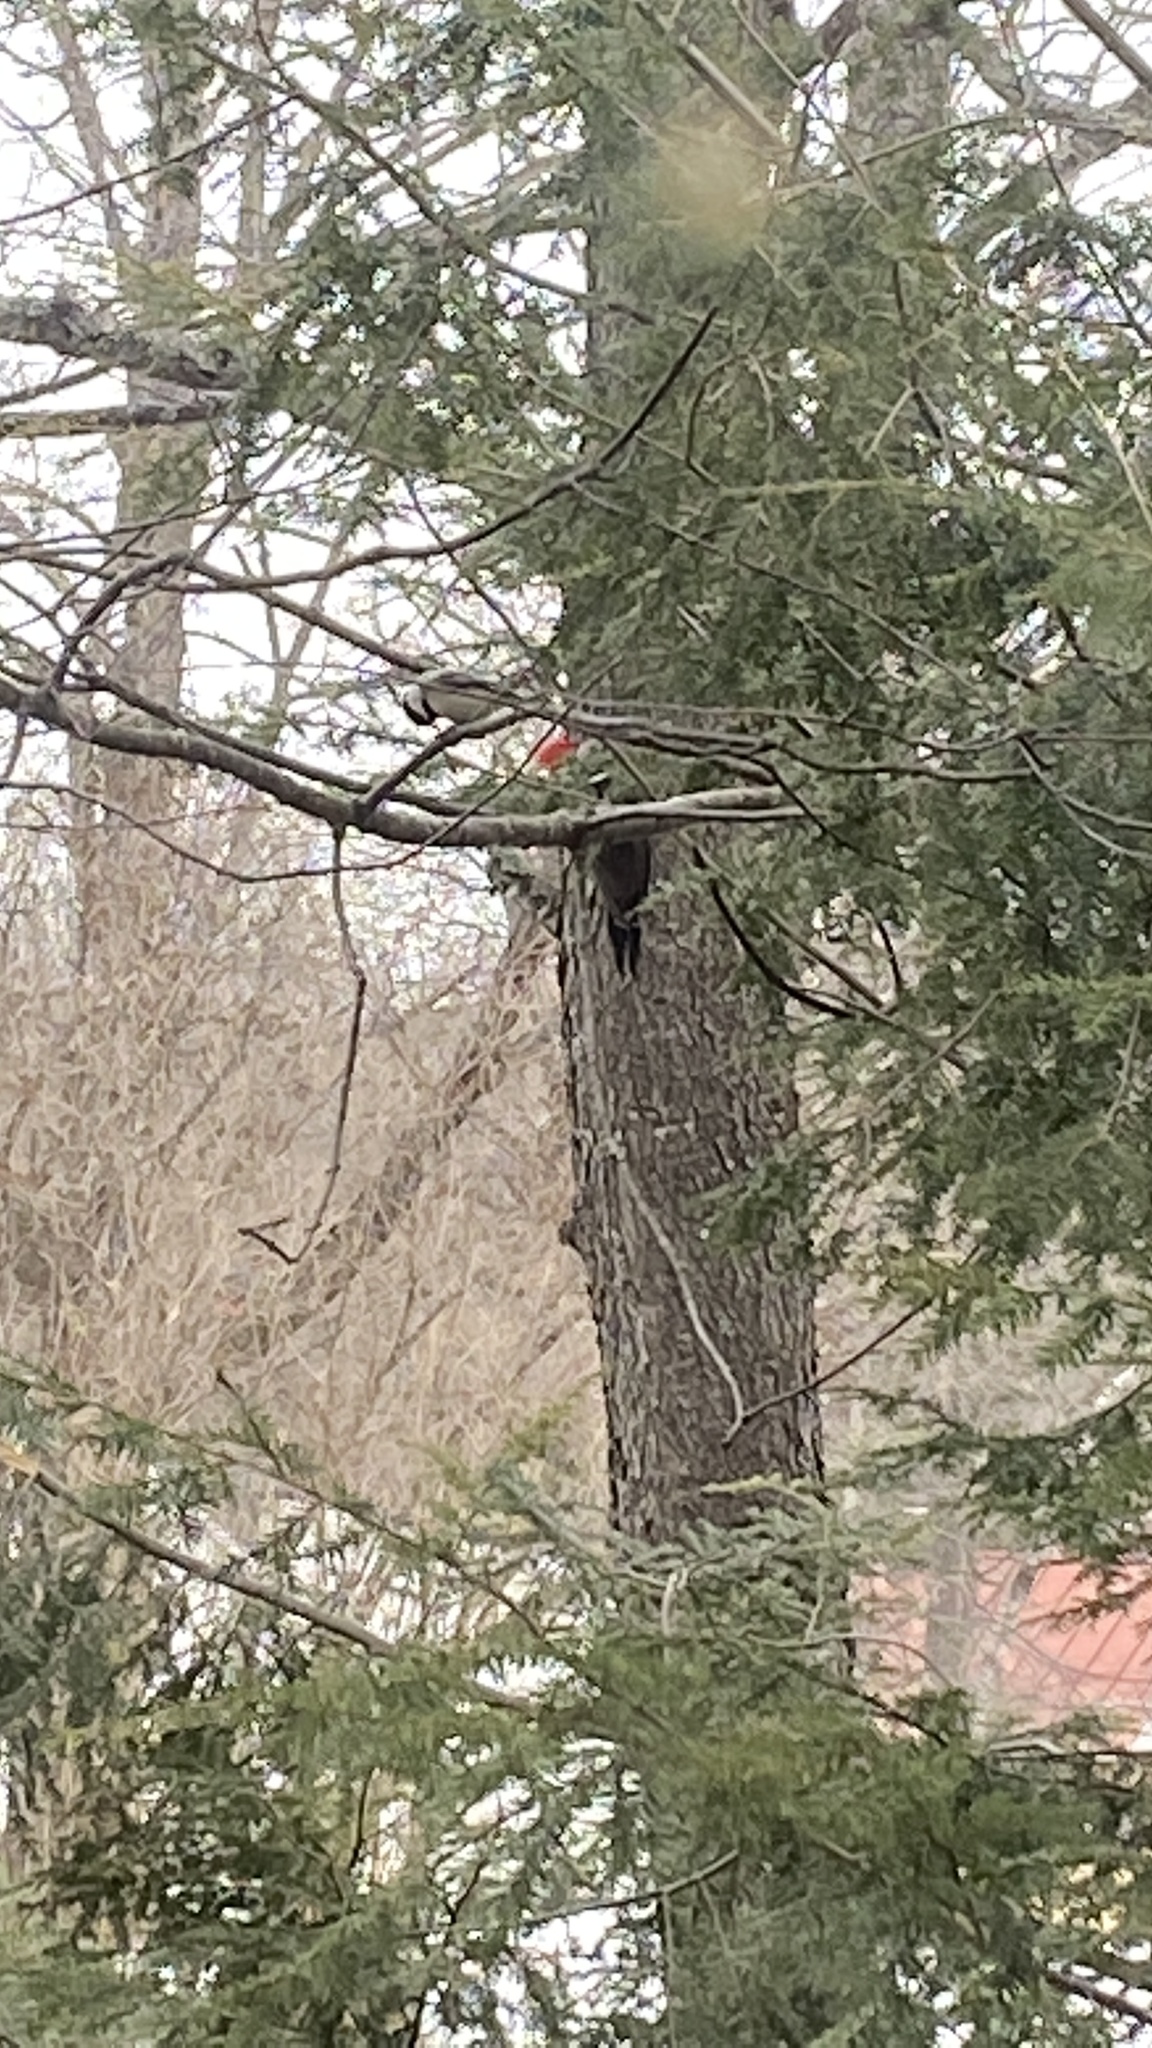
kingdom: Animalia
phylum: Chordata
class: Aves
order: Piciformes
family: Picidae
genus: Dryocopus
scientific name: Dryocopus pileatus
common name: Pileated woodpecker
